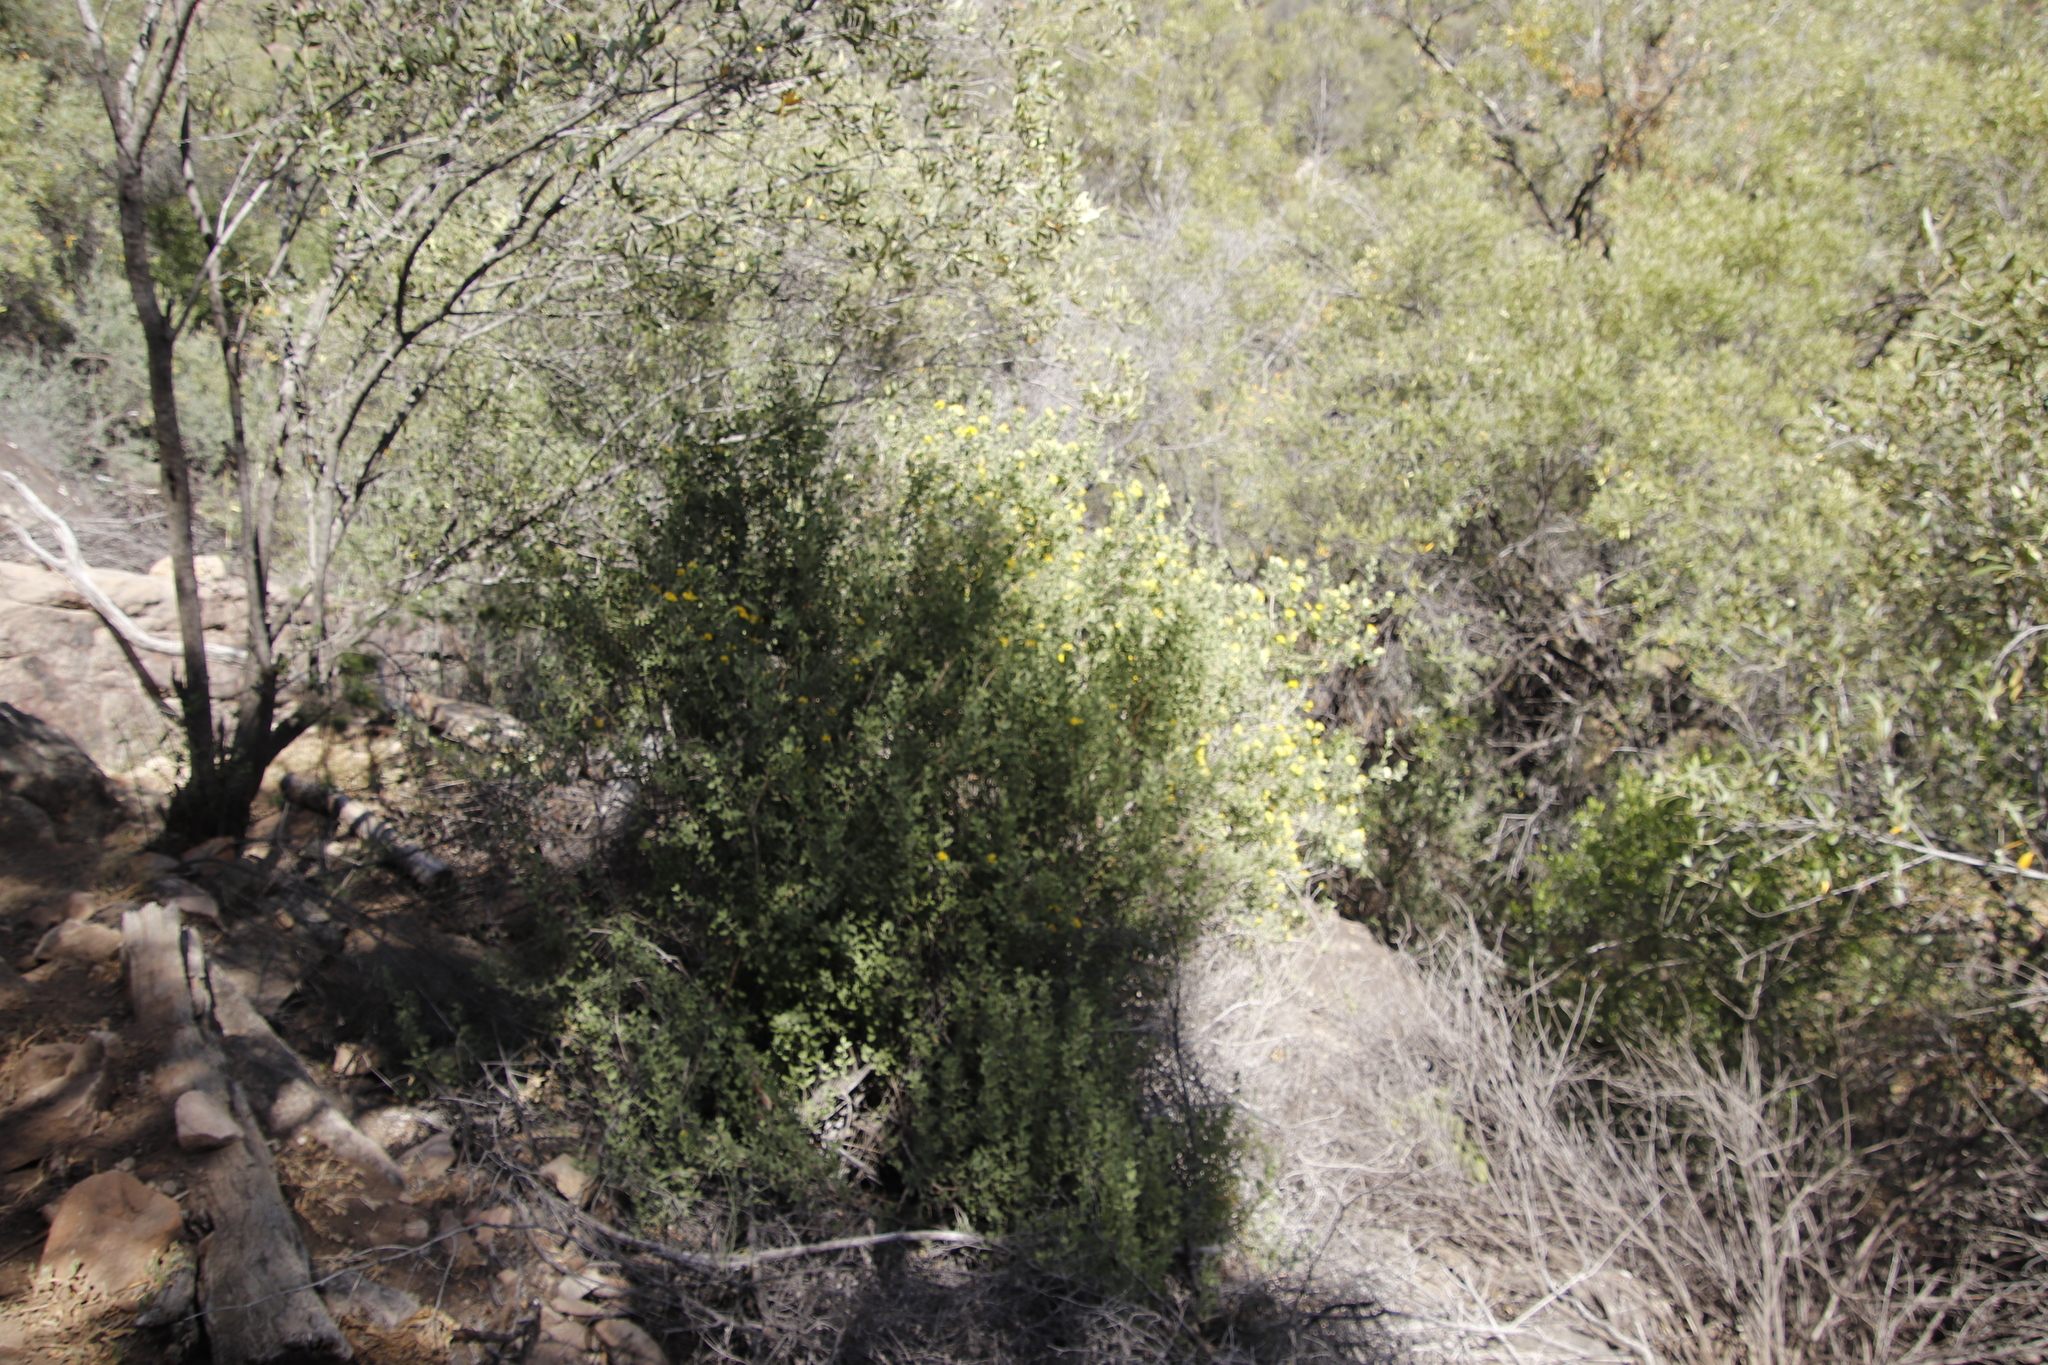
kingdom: Plantae
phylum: Tracheophyta
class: Magnoliopsida
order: Asterales
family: Asteraceae
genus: Pteronia
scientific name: Pteronia divaricata
